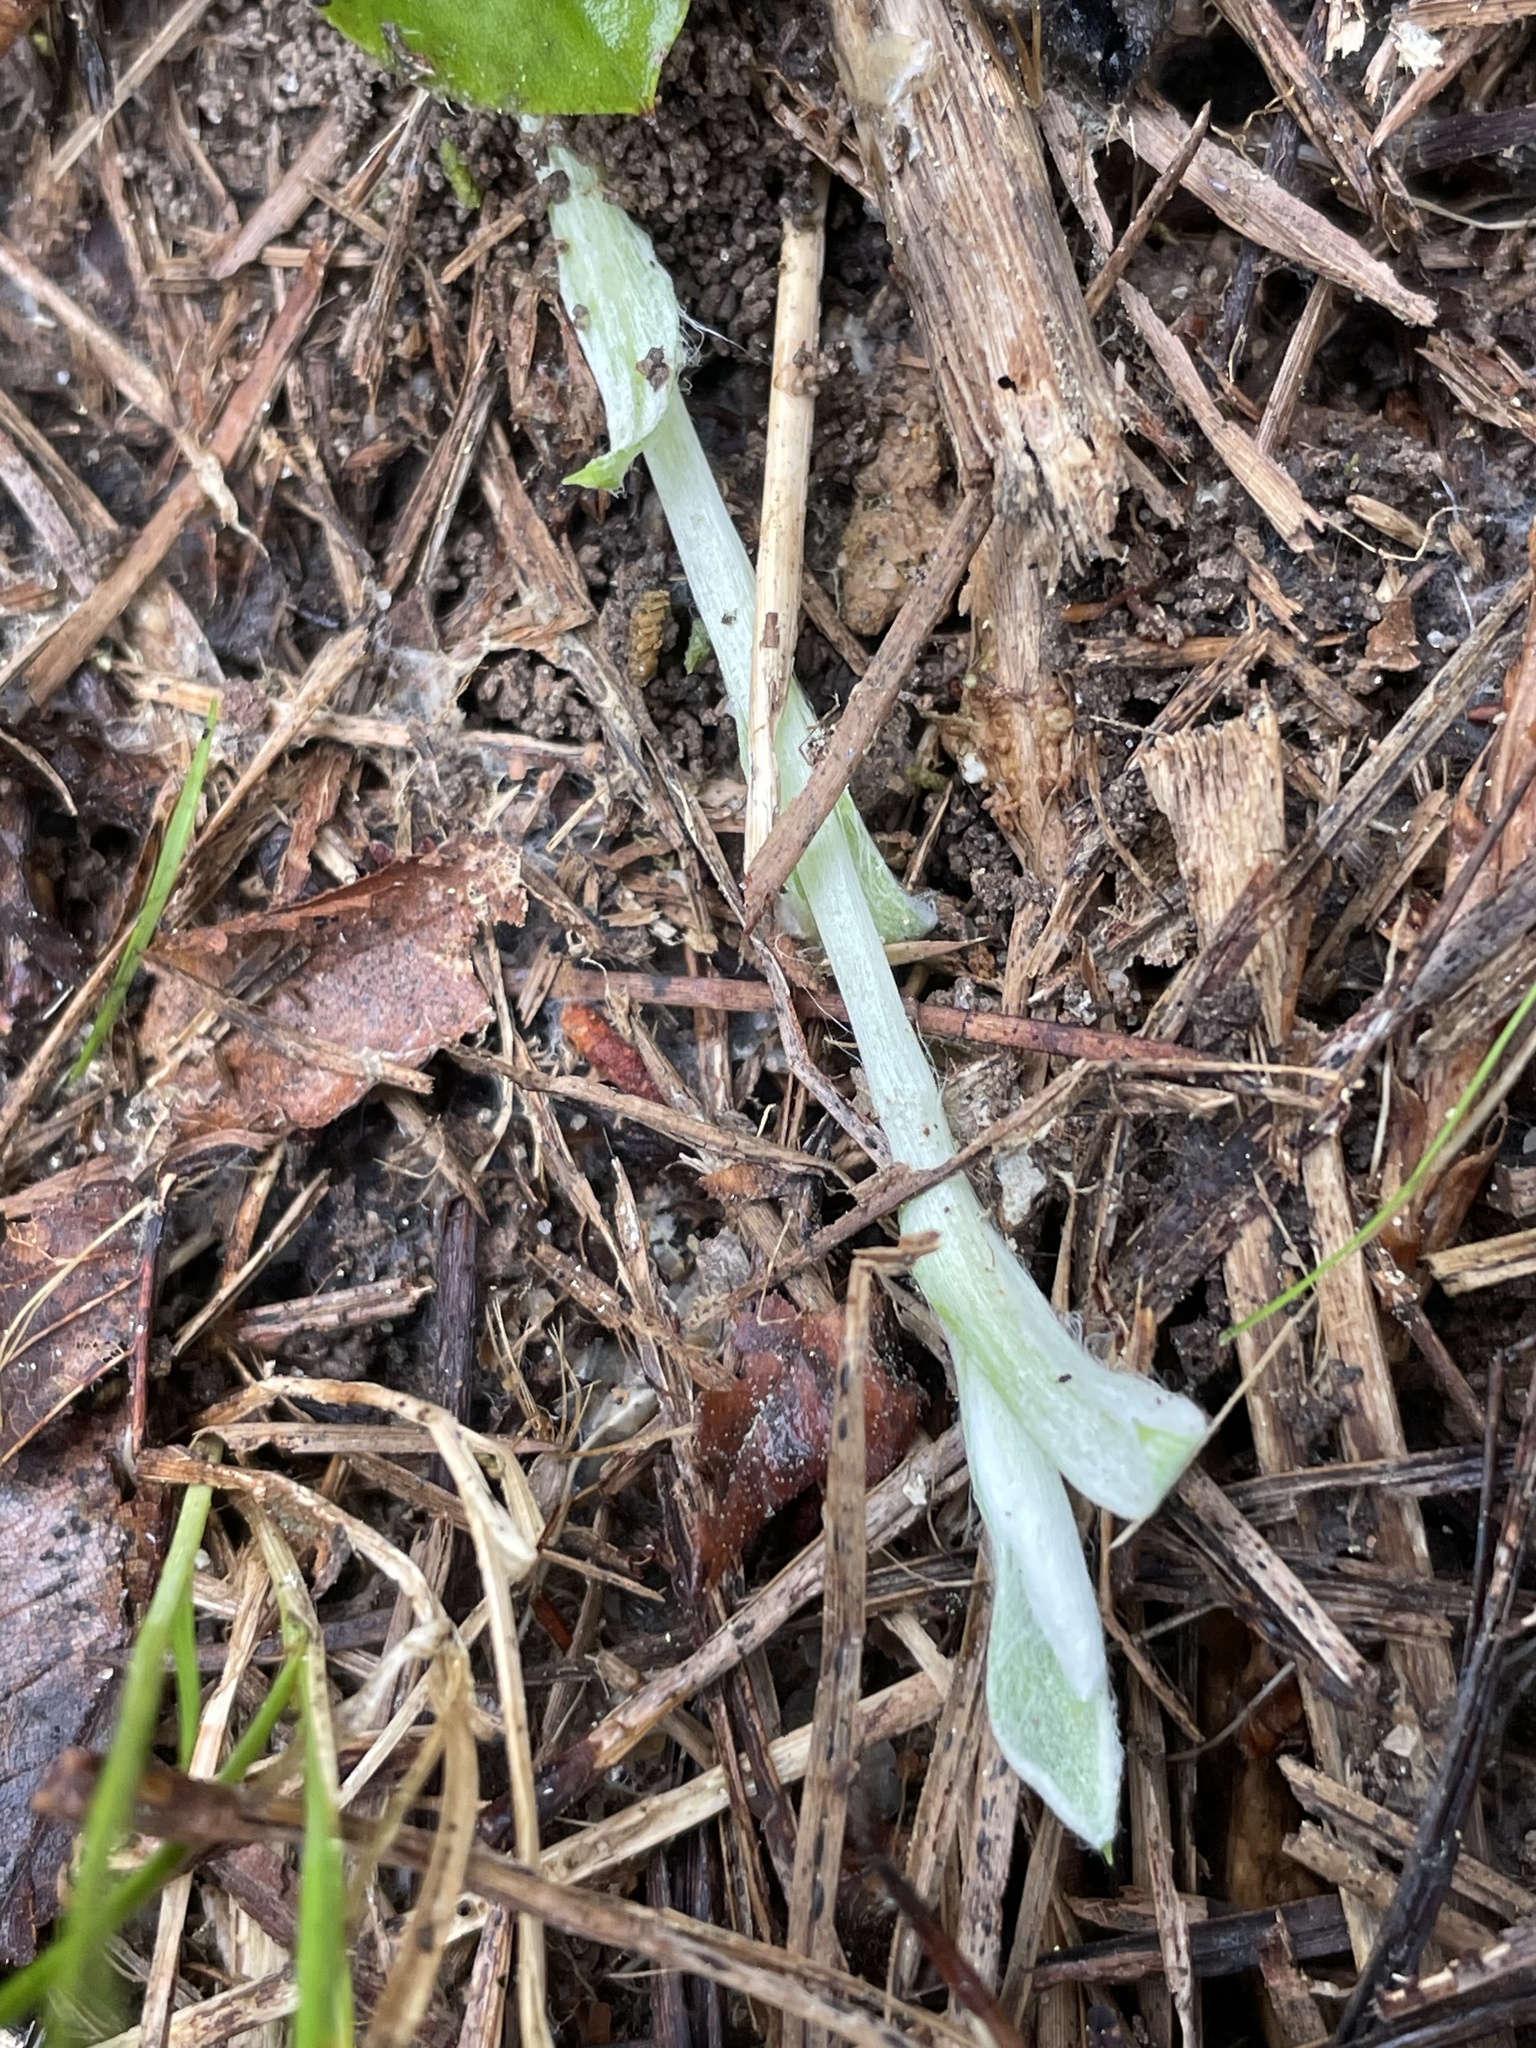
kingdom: Plantae
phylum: Tracheophyta
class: Magnoliopsida
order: Asterales
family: Asteraceae
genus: Antennaria
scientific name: Antennaria parlinii
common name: Parlin's pussytoes
